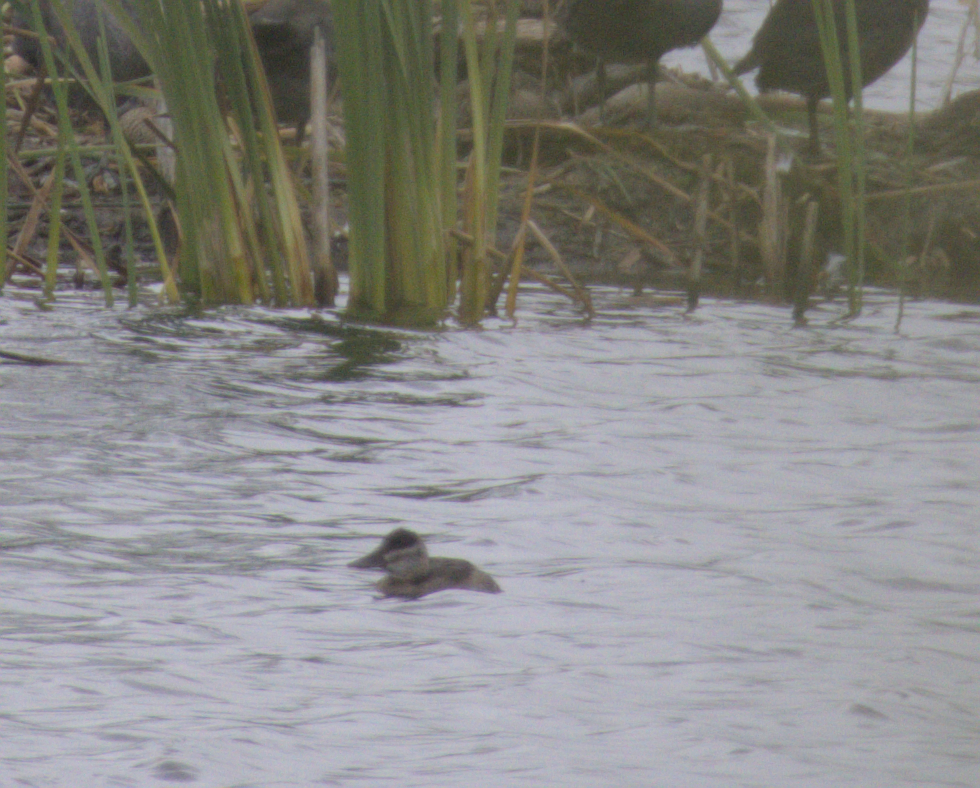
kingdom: Animalia
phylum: Chordata
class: Aves
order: Anseriformes
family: Anatidae
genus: Oxyura
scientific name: Oxyura jamaicensis
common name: Ruddy duck
